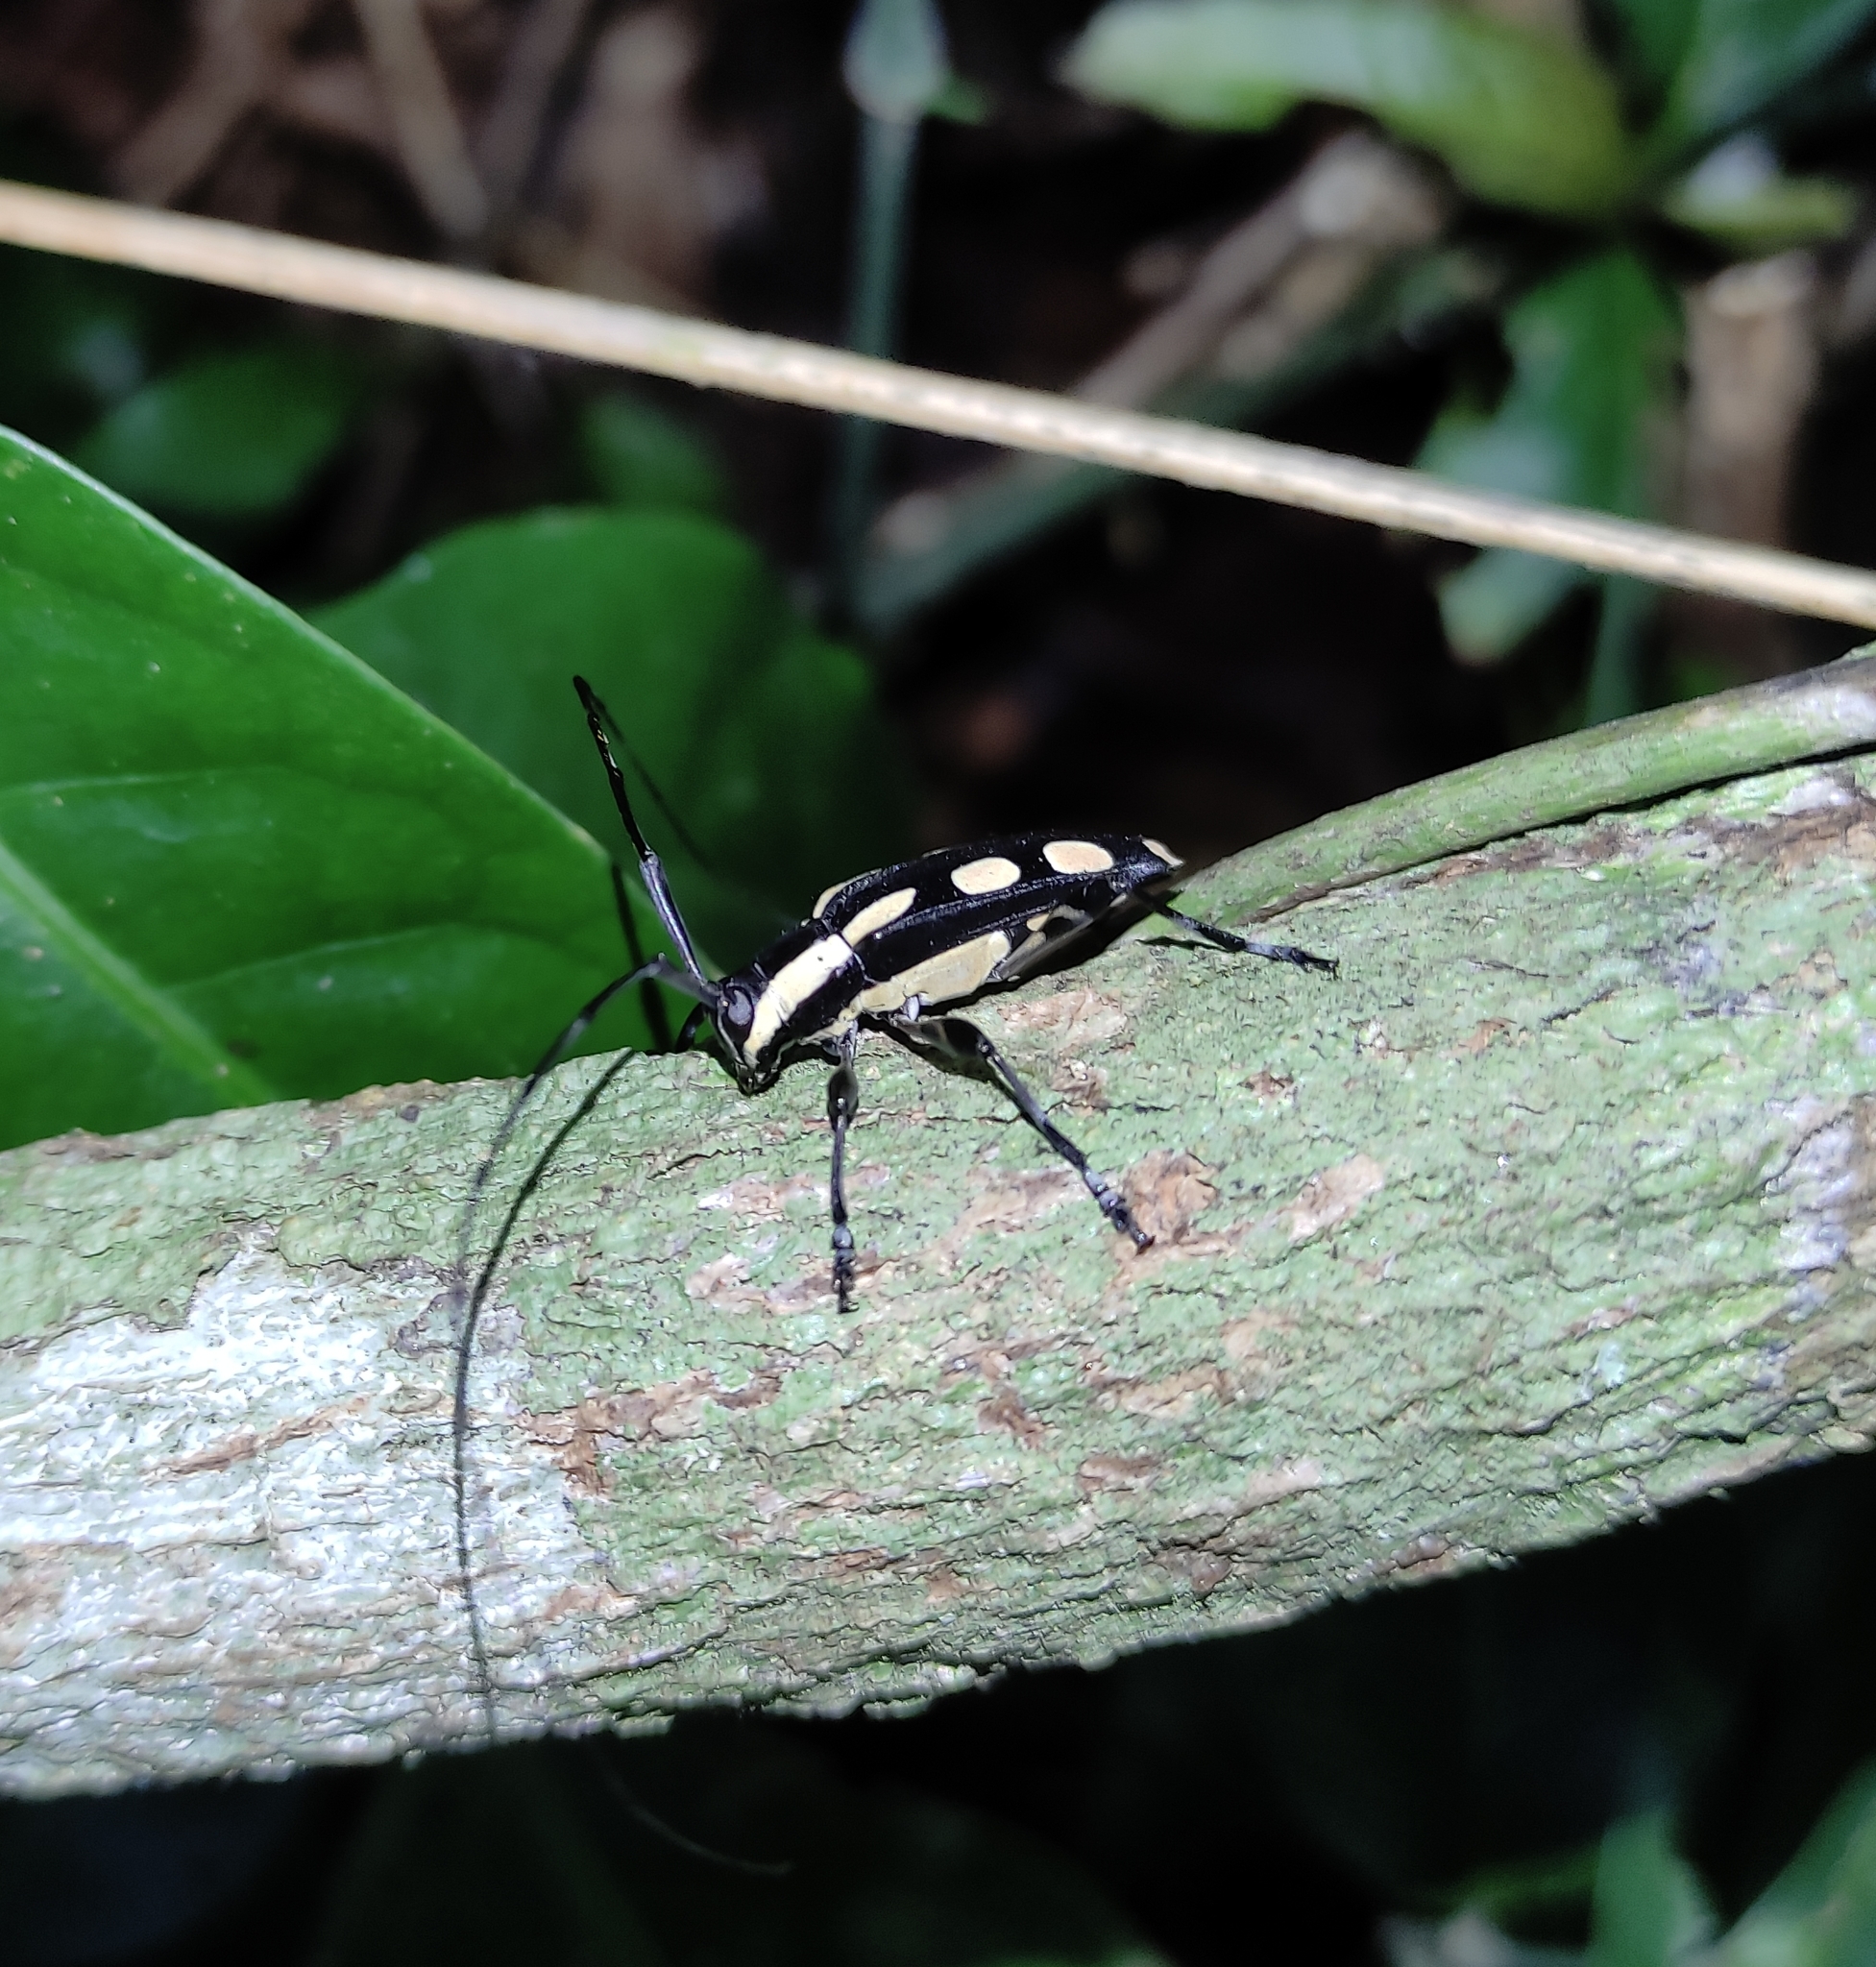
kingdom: Animalia
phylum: Arthropoda
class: Insecta
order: Coleoptera
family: Cerambycidae
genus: Colobothea
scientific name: Colobothea cassandra
